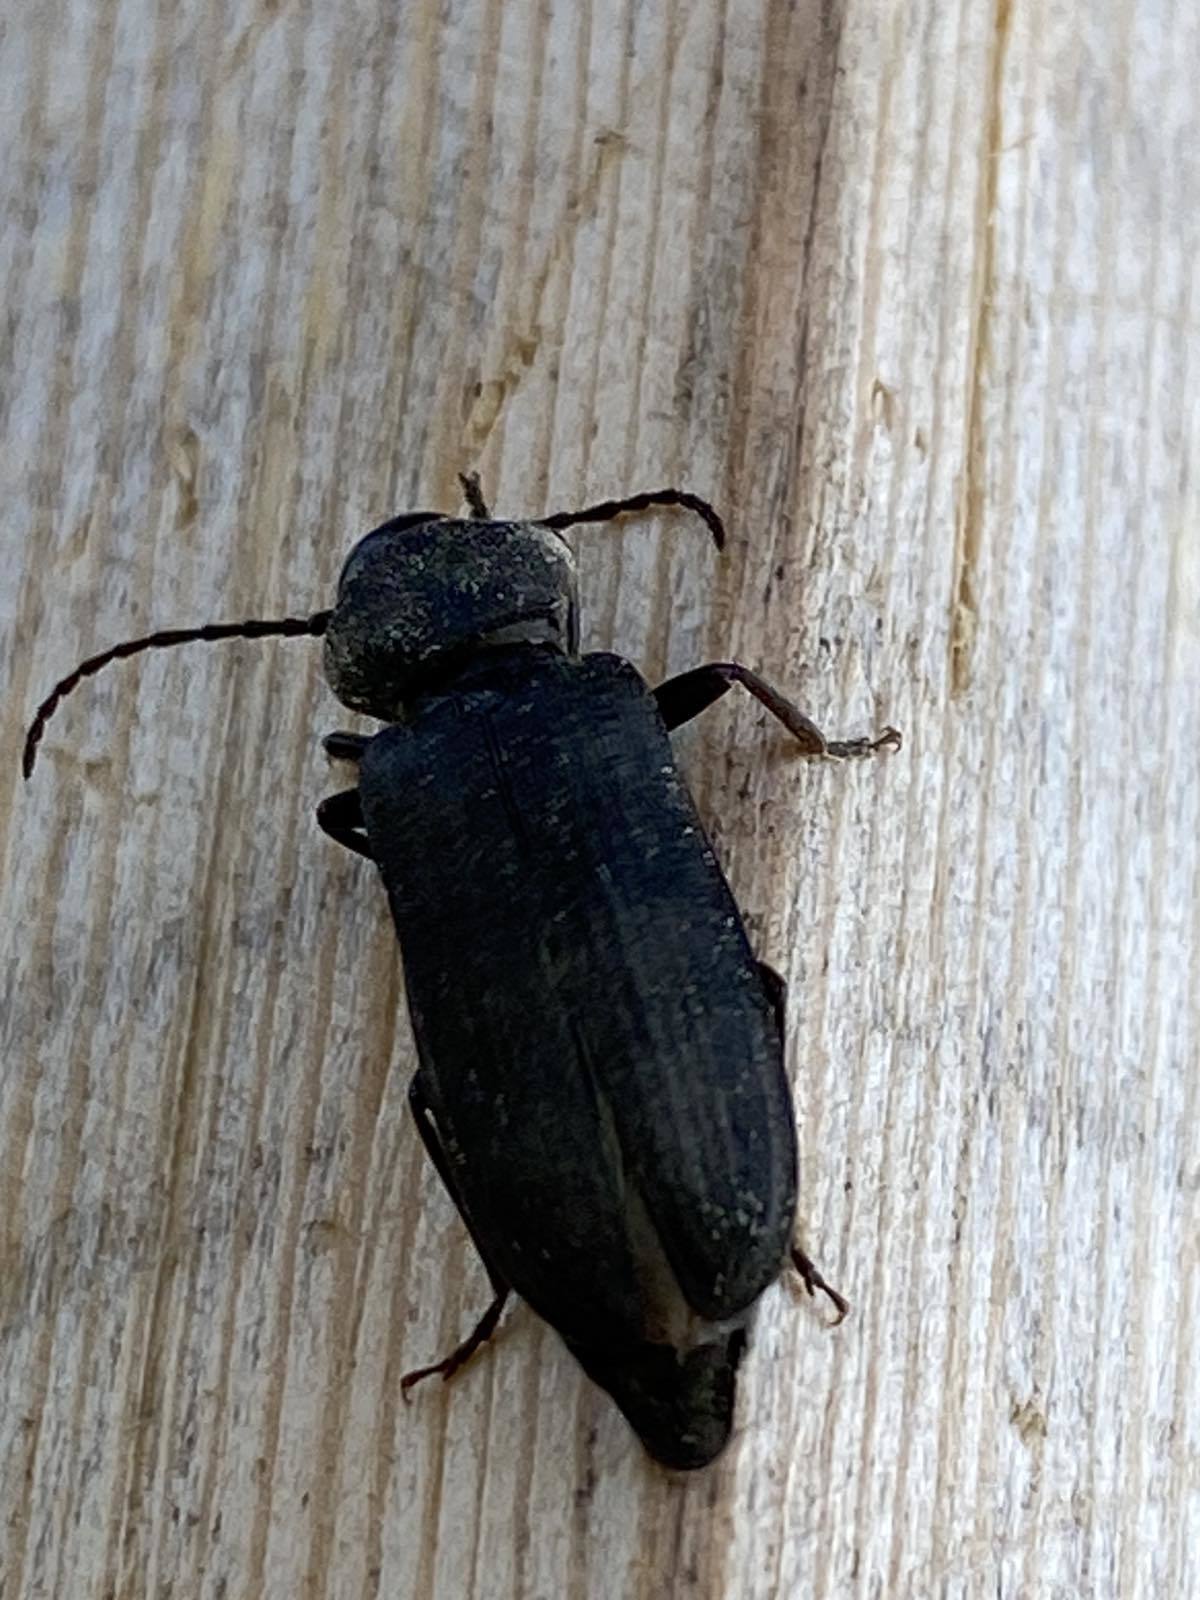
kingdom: Animalia
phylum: Arthropoda
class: Insecta
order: Coleoptera
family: Cerambycidae
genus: Asemum
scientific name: Asemum striatum
